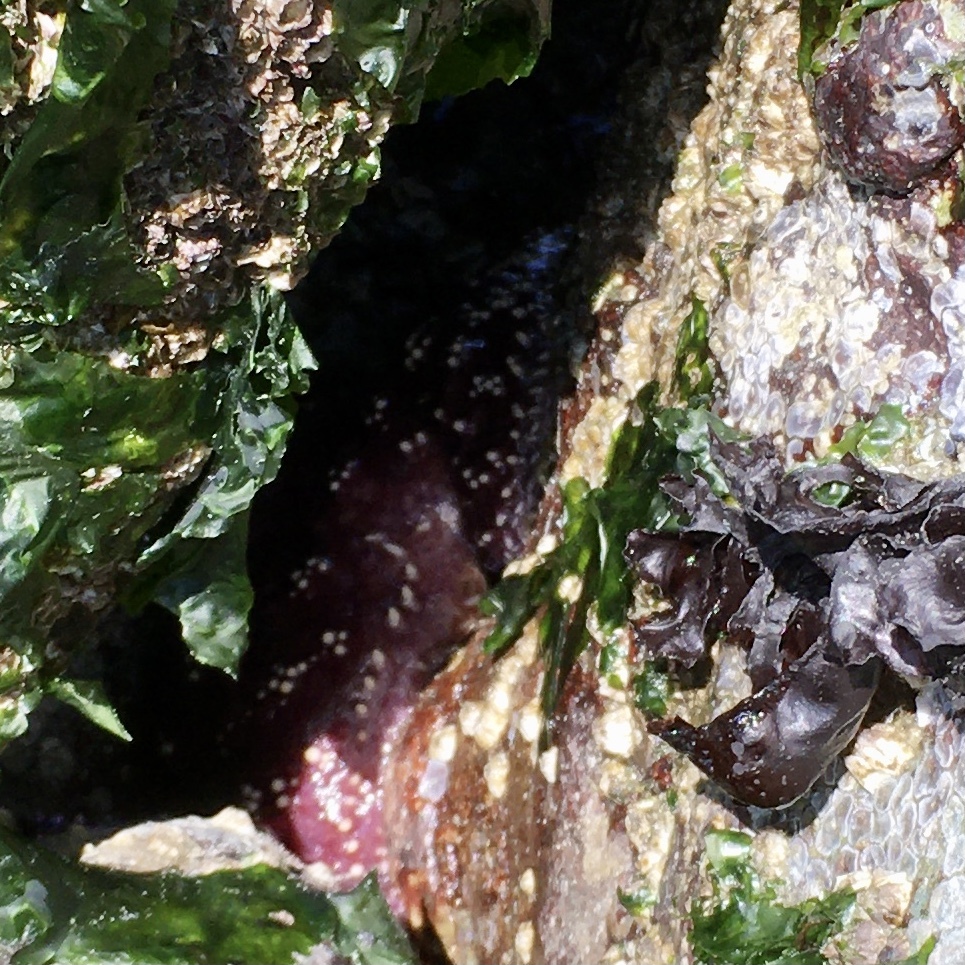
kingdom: Animalia
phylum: Echinodermata
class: Asteroidea
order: Forcipulatida
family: Asteriidae
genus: Pisaster
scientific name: Pisaster ochraceus
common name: Ochre stars
